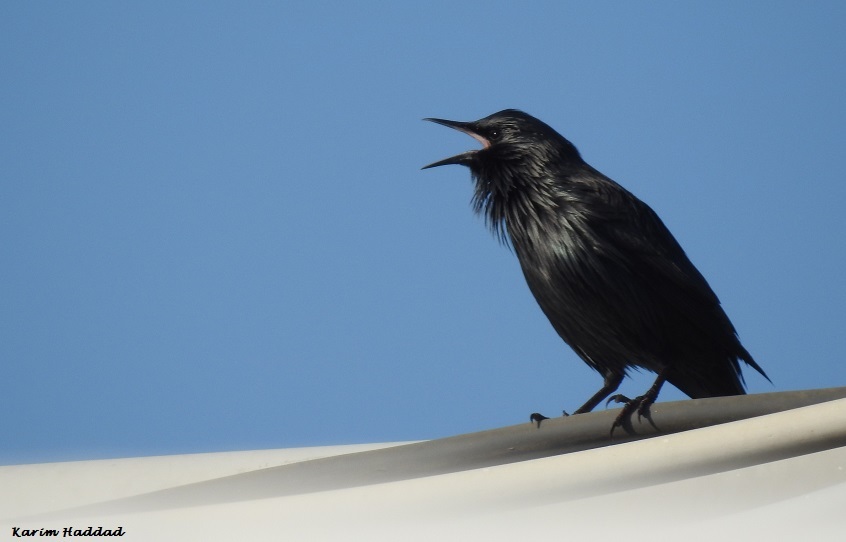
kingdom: Animalia
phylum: Chordata
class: Aves
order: Passeriformes
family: Sturnidae
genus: Sturnus
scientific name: Sturnus unicolor
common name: Spotless starling
